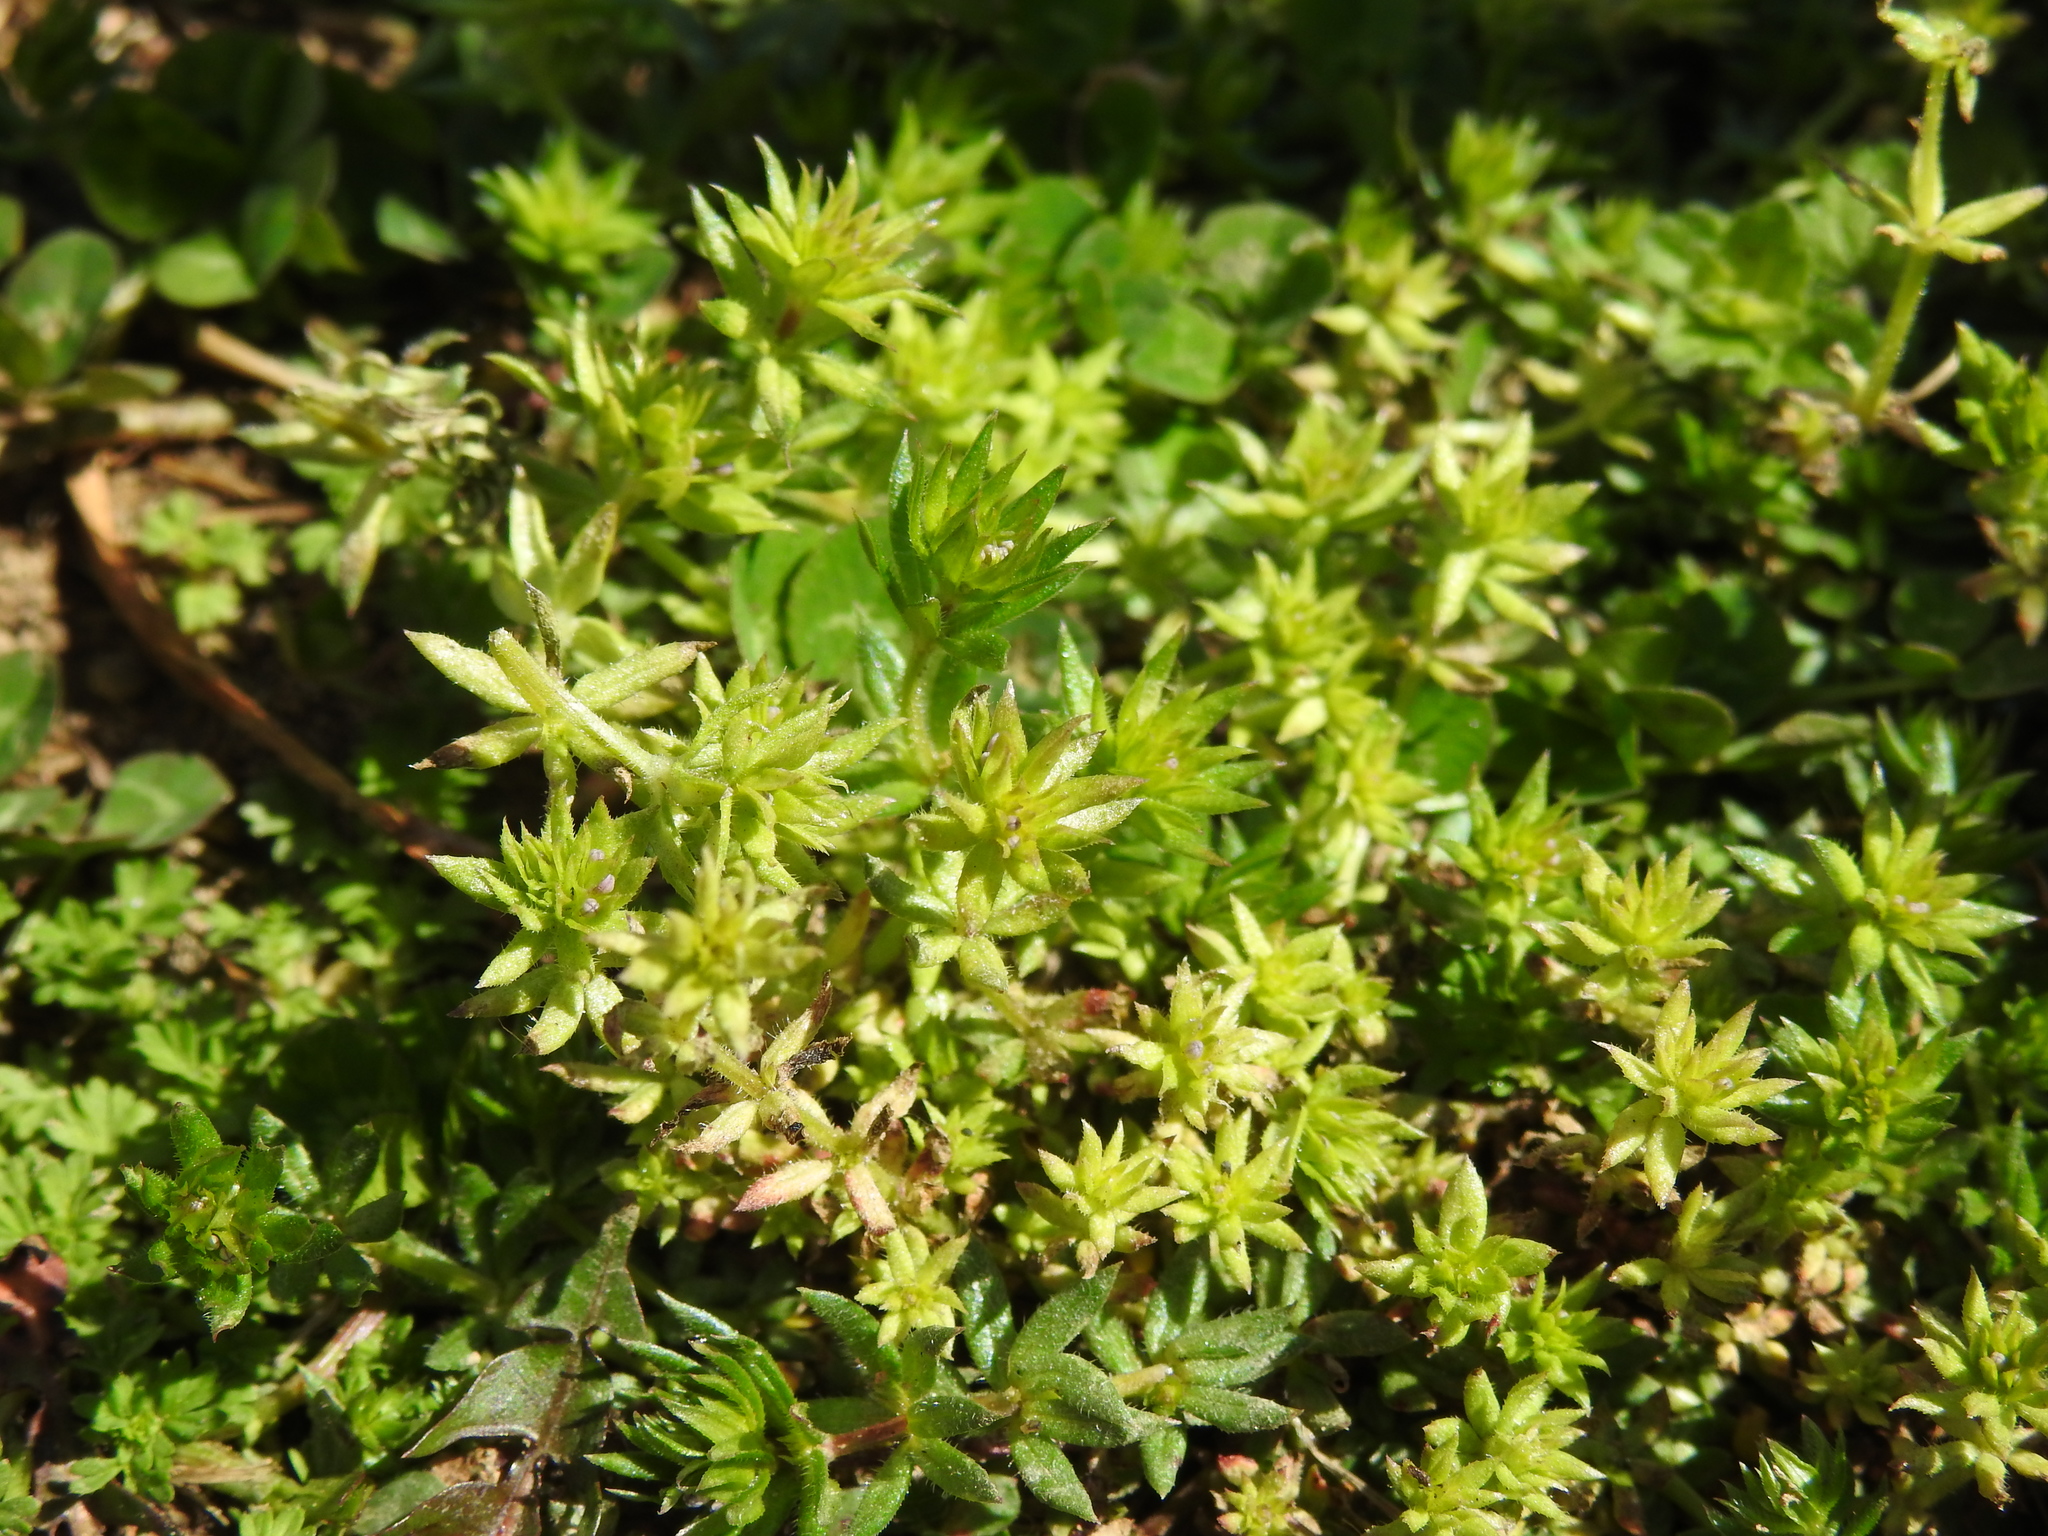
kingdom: Plantae
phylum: Tracheophyta
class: Magnoliopsida
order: Gentianales
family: Rubiaceae
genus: Sherardia
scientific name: Sherardia arvensis
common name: Field madder
